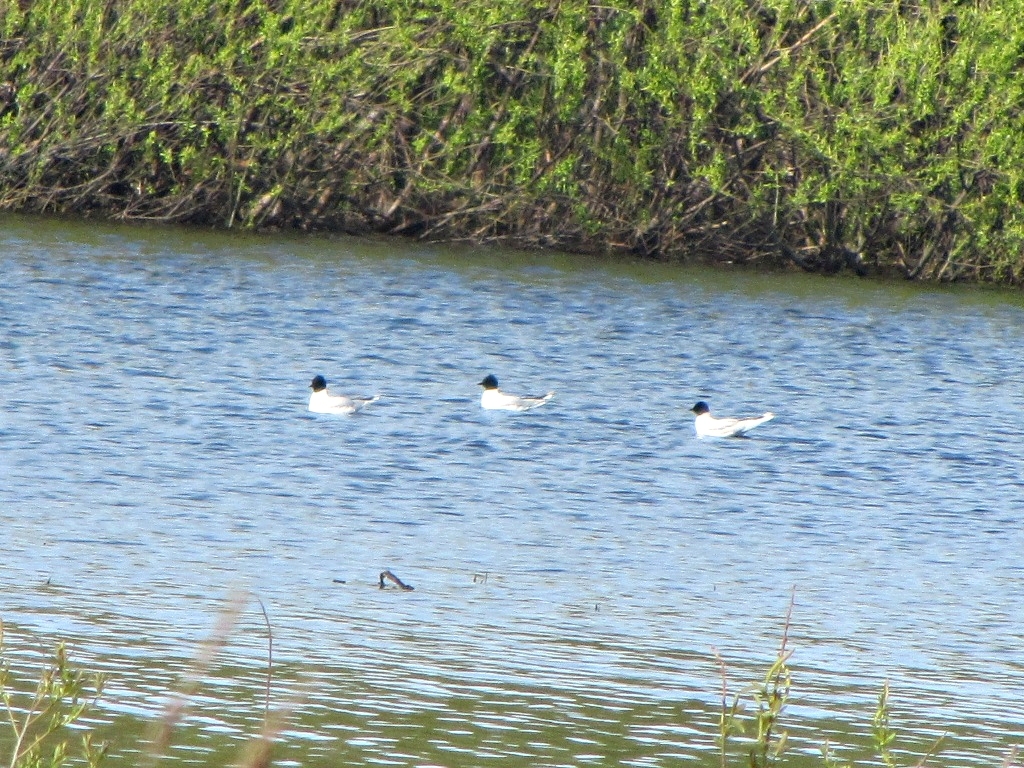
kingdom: Animalia
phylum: Chordata
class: Aves
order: Charadriiformes
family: Laridae
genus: Hydrocoloeus
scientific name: Hydrocoloeus minutus
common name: Little gull
